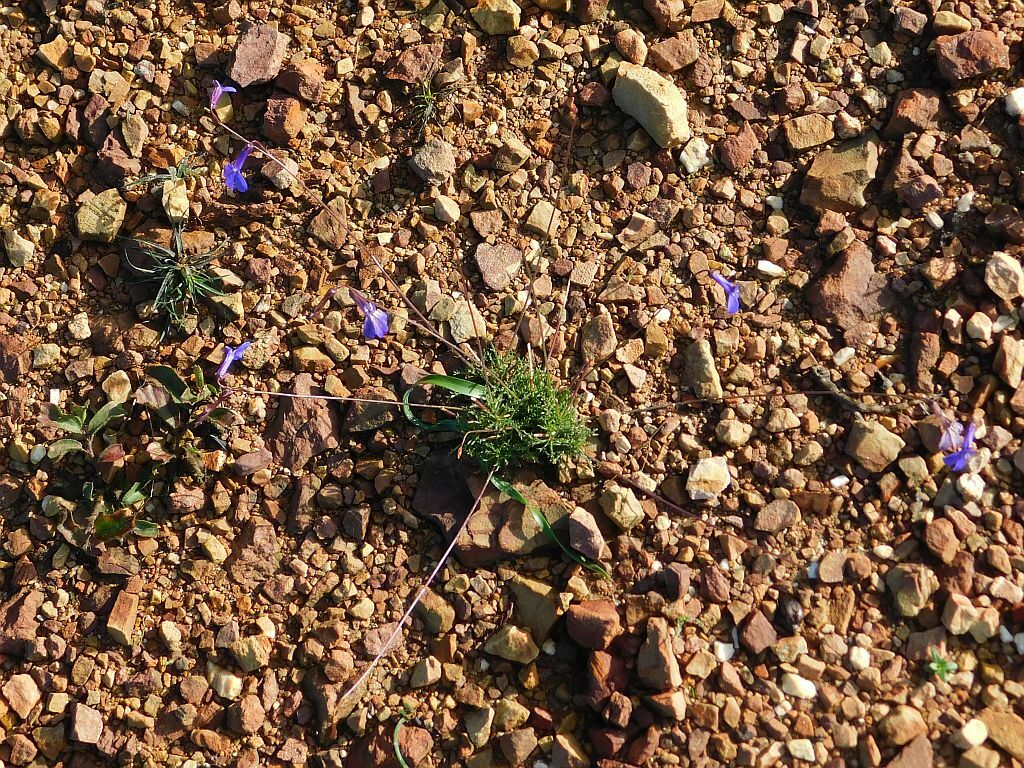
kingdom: Plantae
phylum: Tracheophyta
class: Magnoliopsida
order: Asterales
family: Campanulaceae
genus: Lobelia
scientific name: Lobelia coronopifolia
